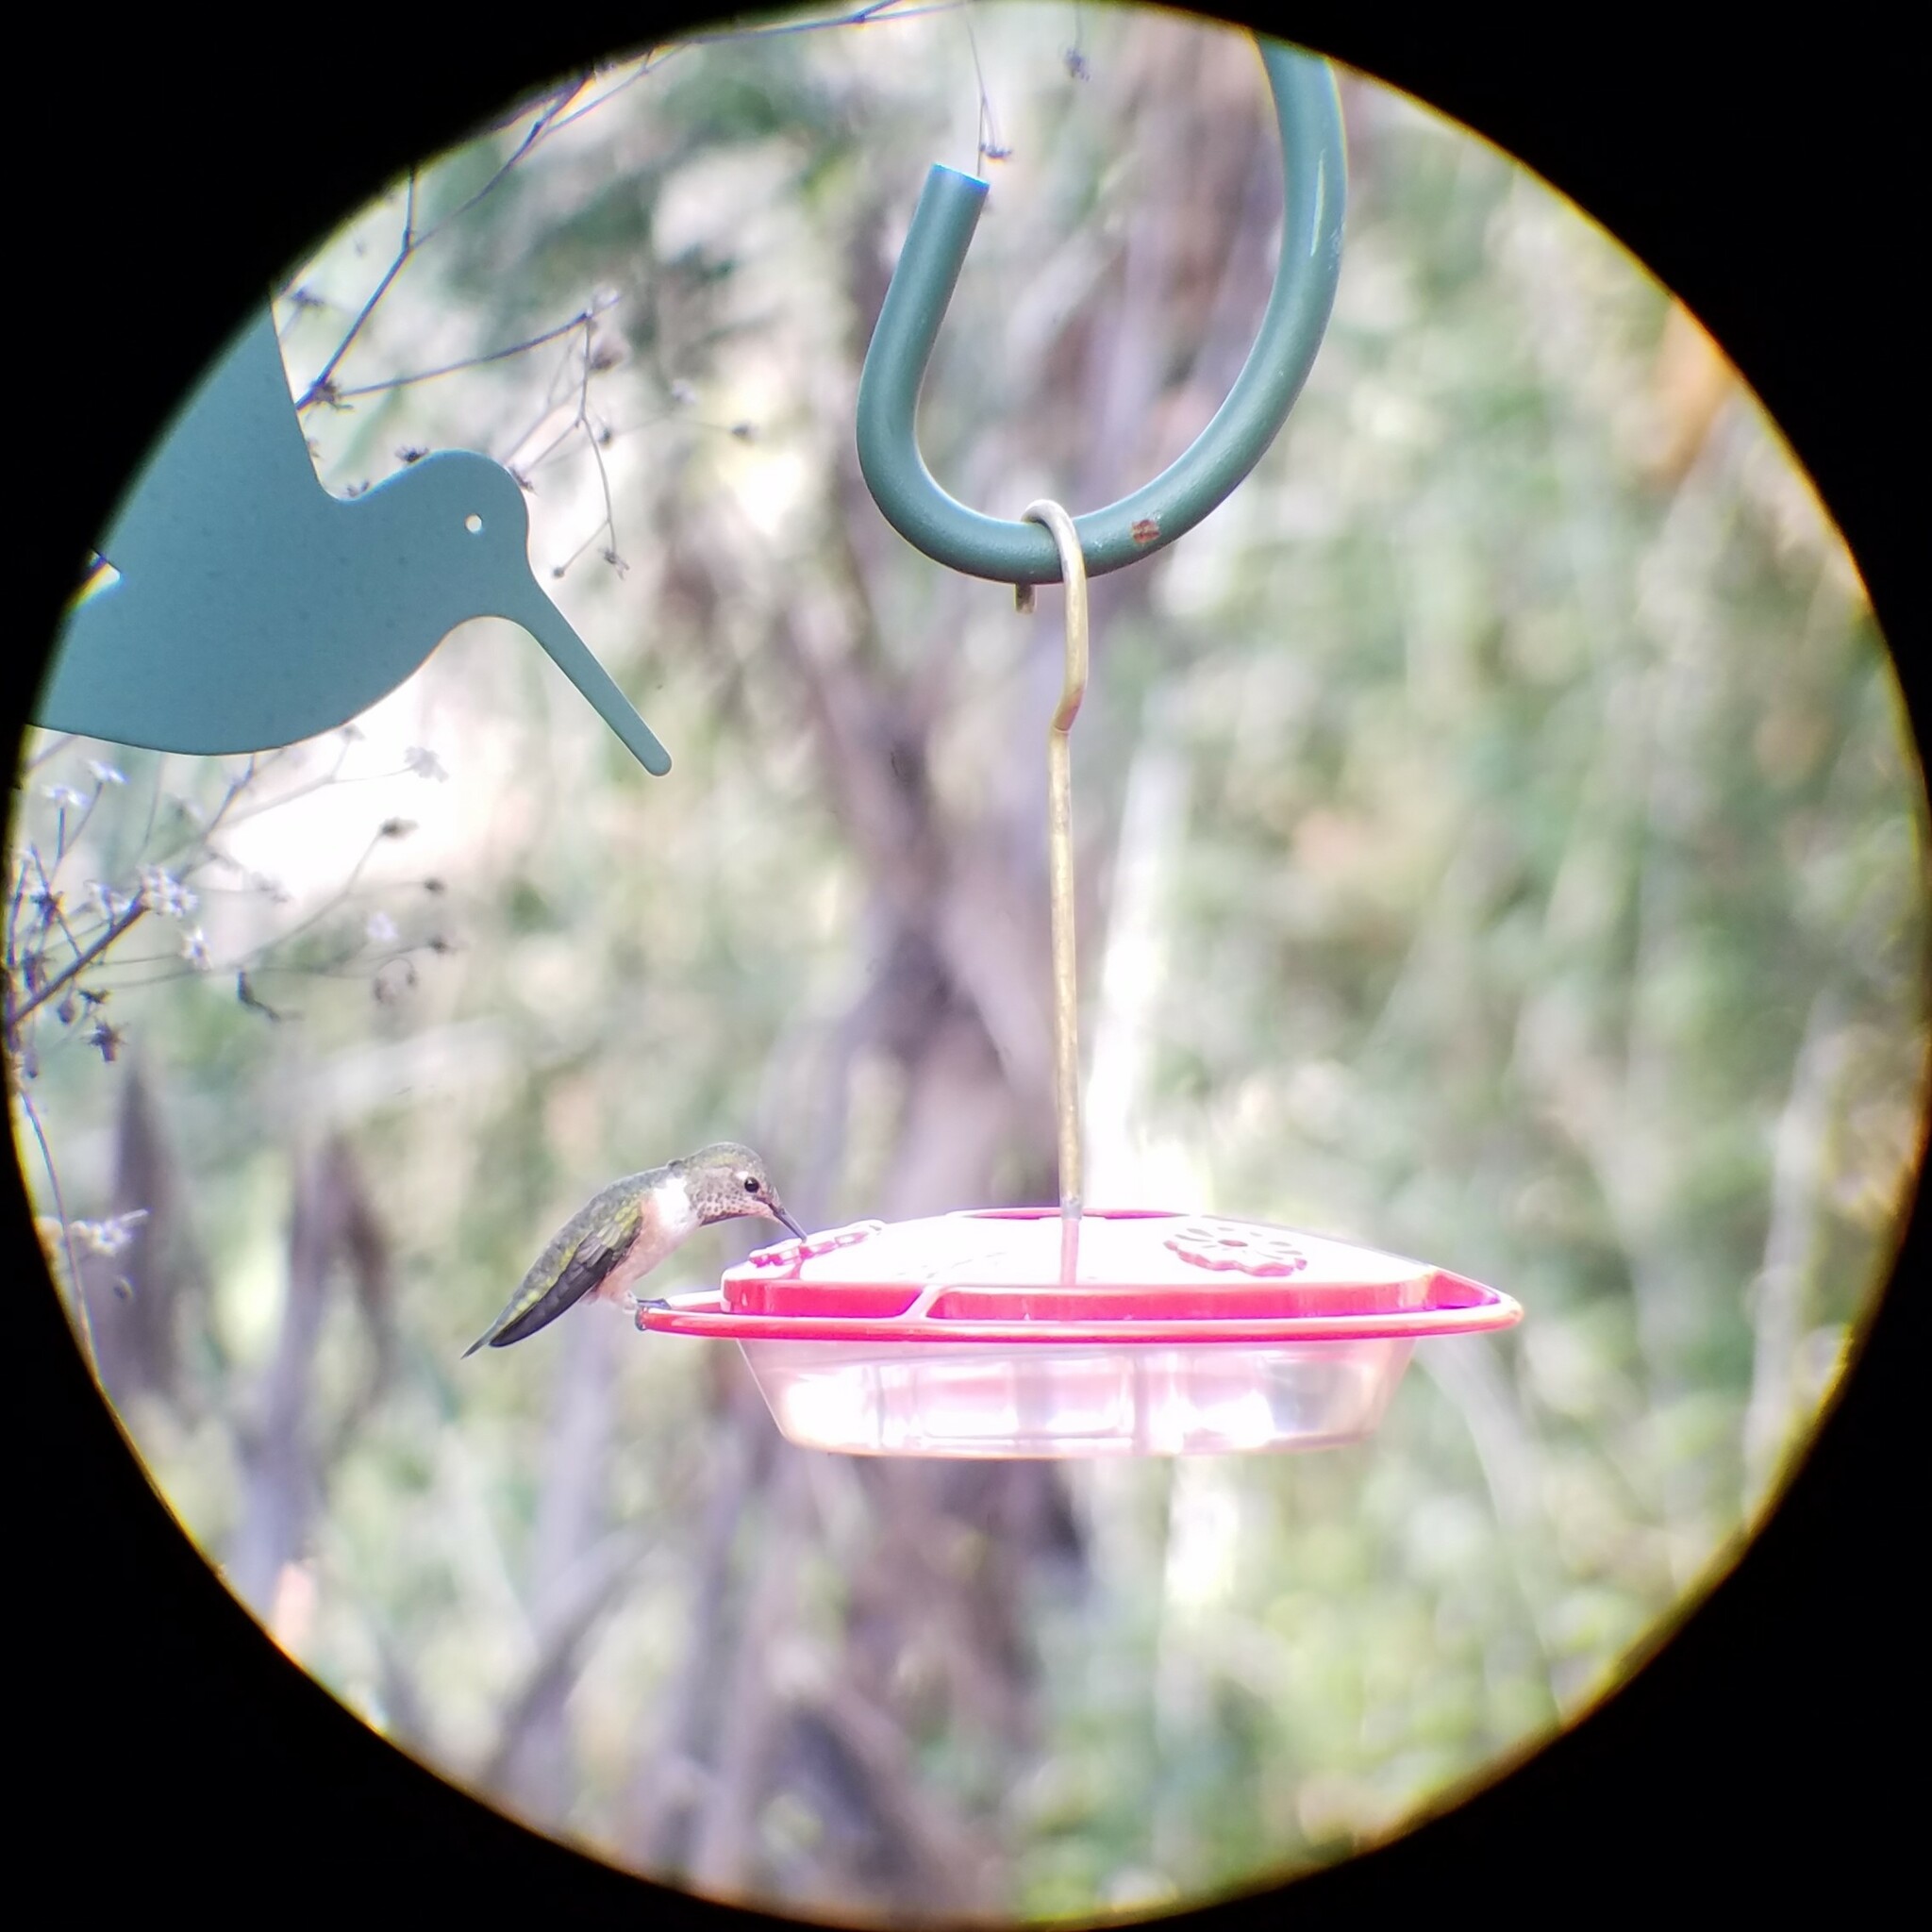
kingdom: Animalia
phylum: Chordata
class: Aves
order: Apodiformes
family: Trochilidae
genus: Selasphorus
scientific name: Selasphorus rufus
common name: Rufous hummingbird
